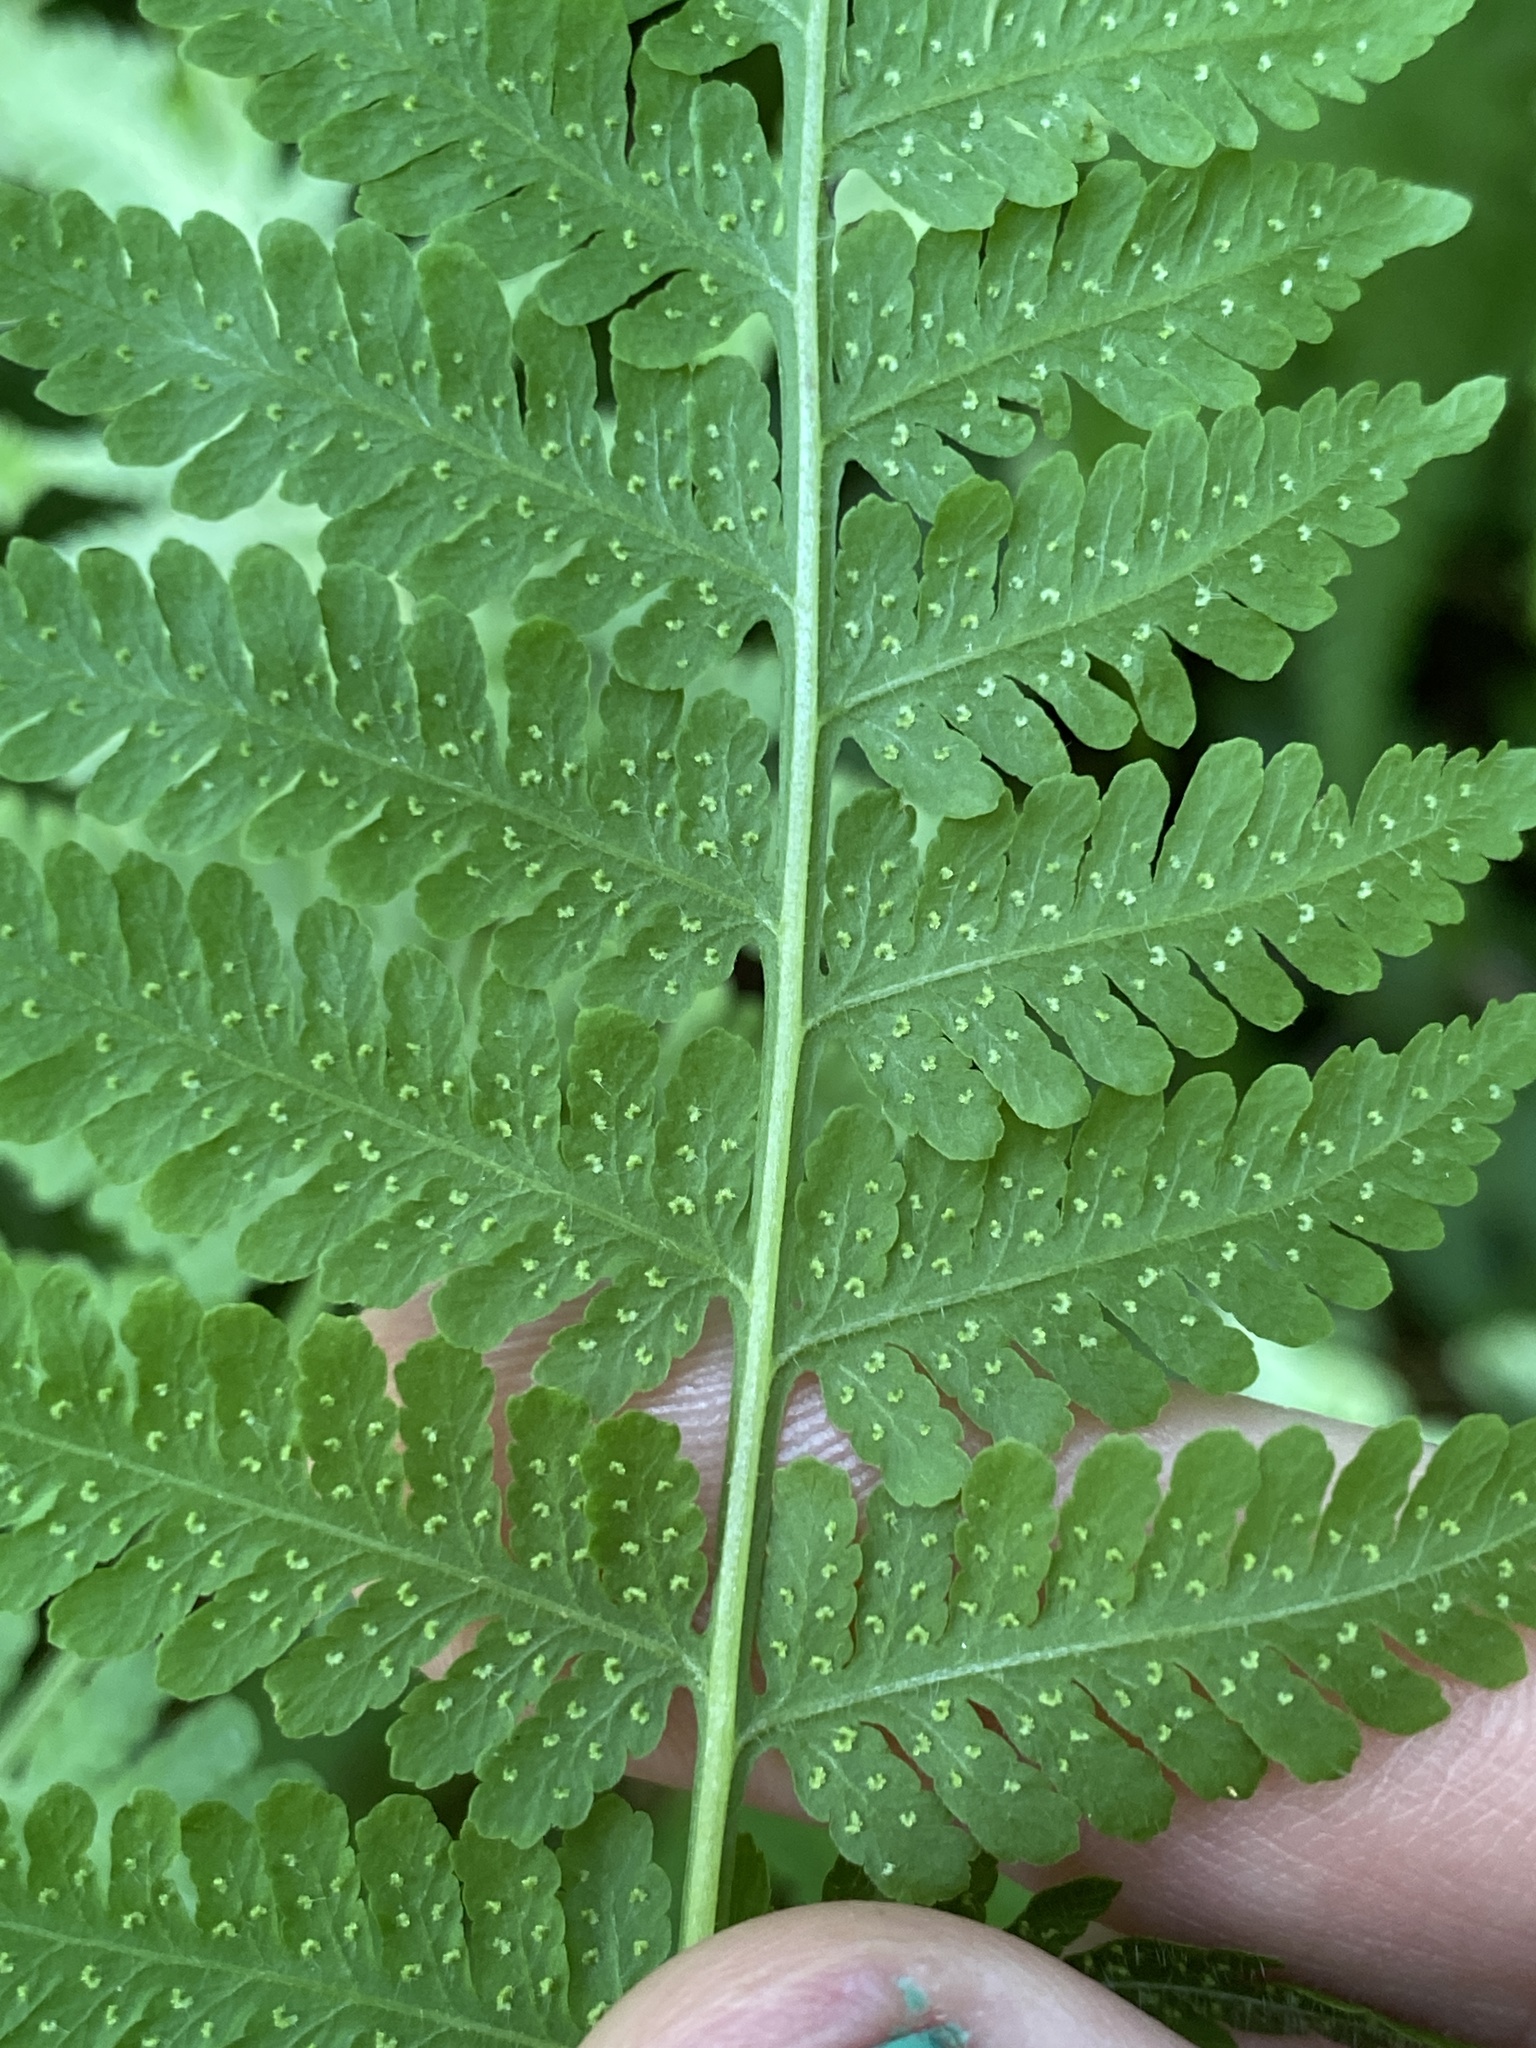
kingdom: Plantae
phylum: Tracheophyta
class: Polypodiopsida
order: Polypodiales
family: Thelypteridaceae
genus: Macrothelypteris
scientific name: Macrothelypteris torresiana
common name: Swordfern
